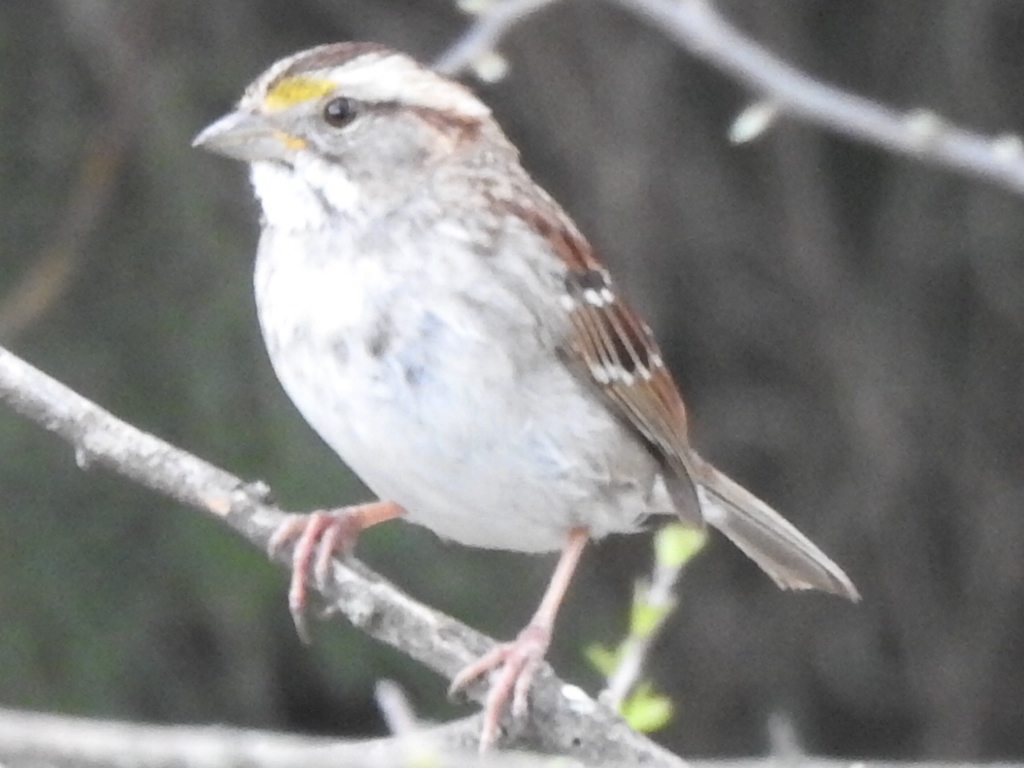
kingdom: Animalia
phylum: Chordata
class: Aves
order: Passeriformes
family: Passerellidae
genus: Zonotrichia
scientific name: Zonotrichia albicollis
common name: White-throated sparrow
